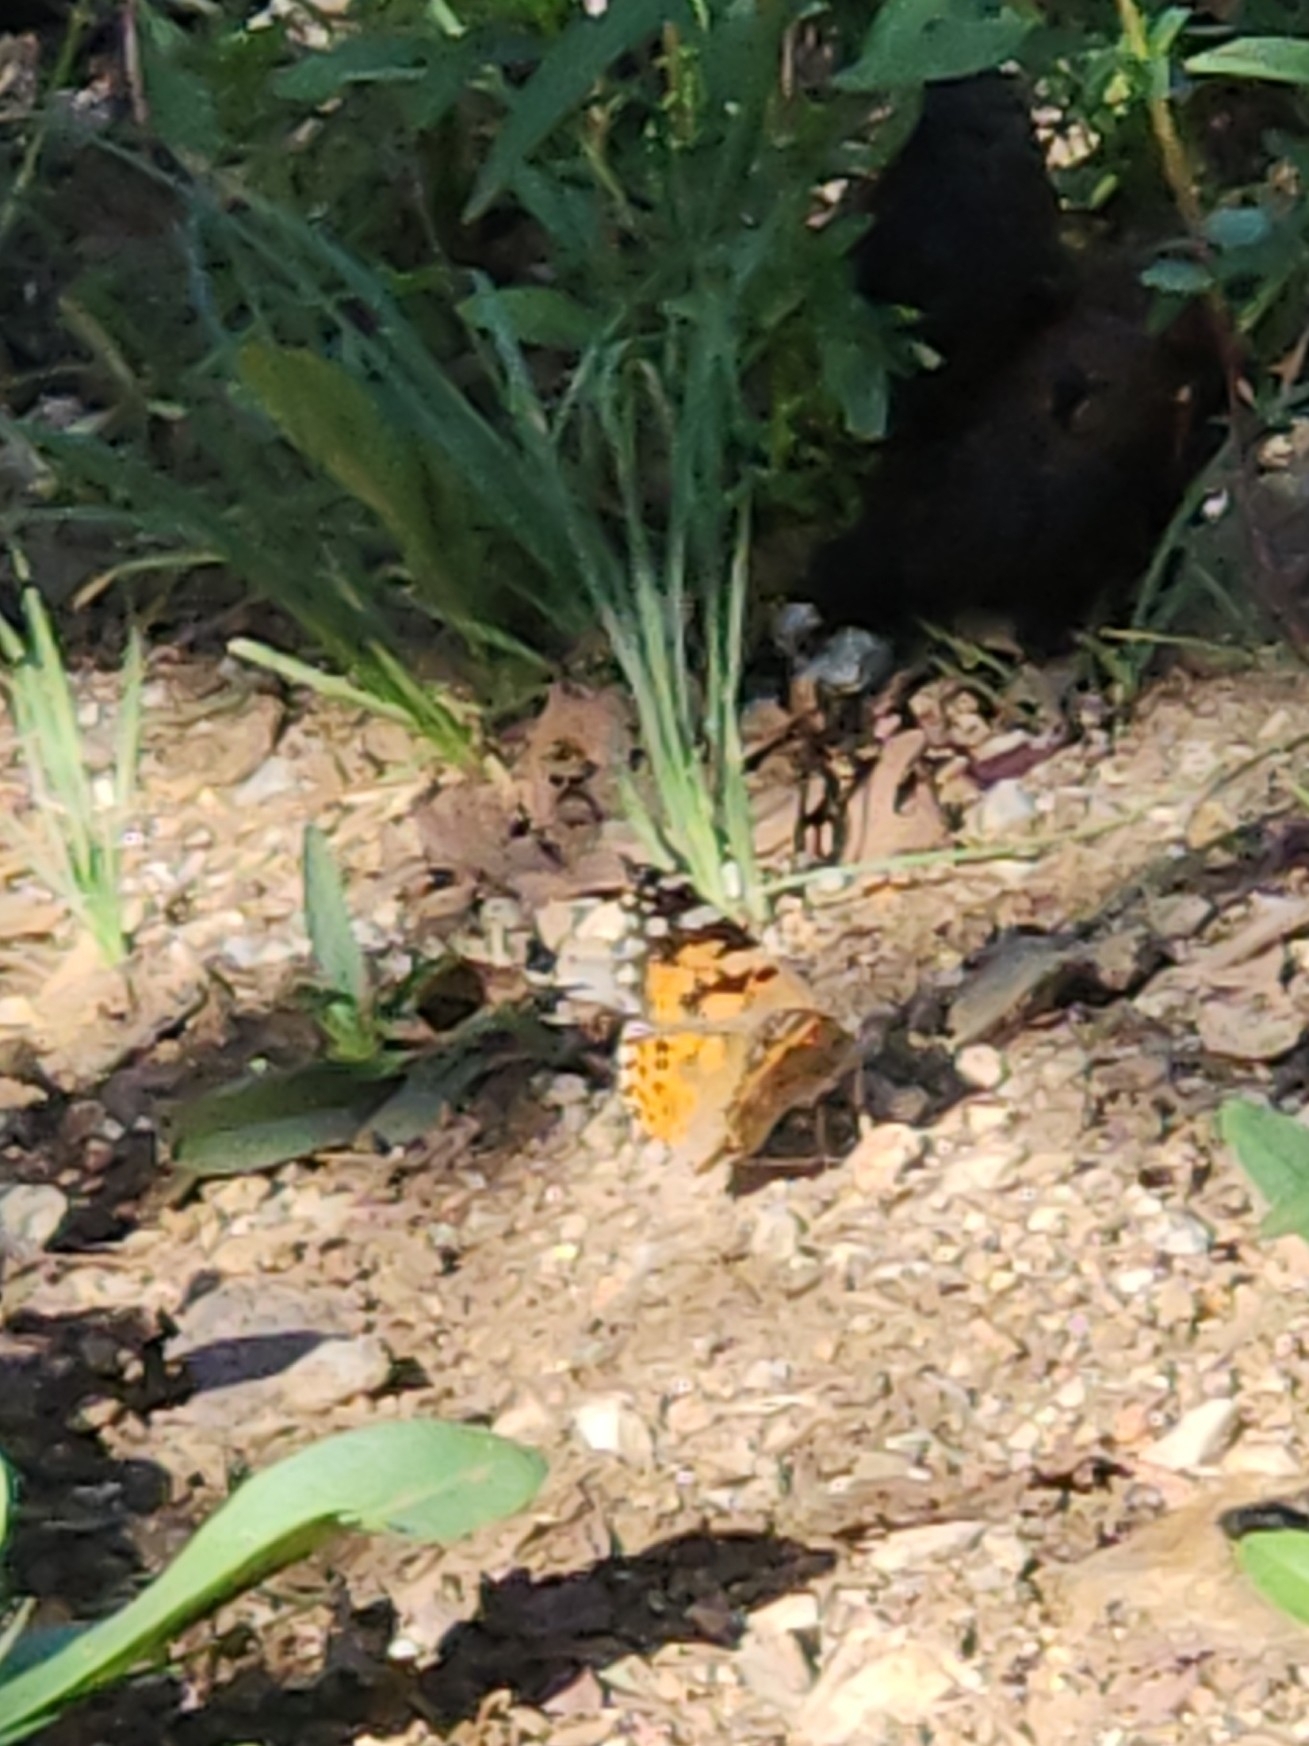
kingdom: Animalia
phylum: Arthropoda
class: Insecta
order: Lepidoptera
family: Nymphalidae
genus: Vanessa
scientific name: Vanessa cardui
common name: Painted lady
